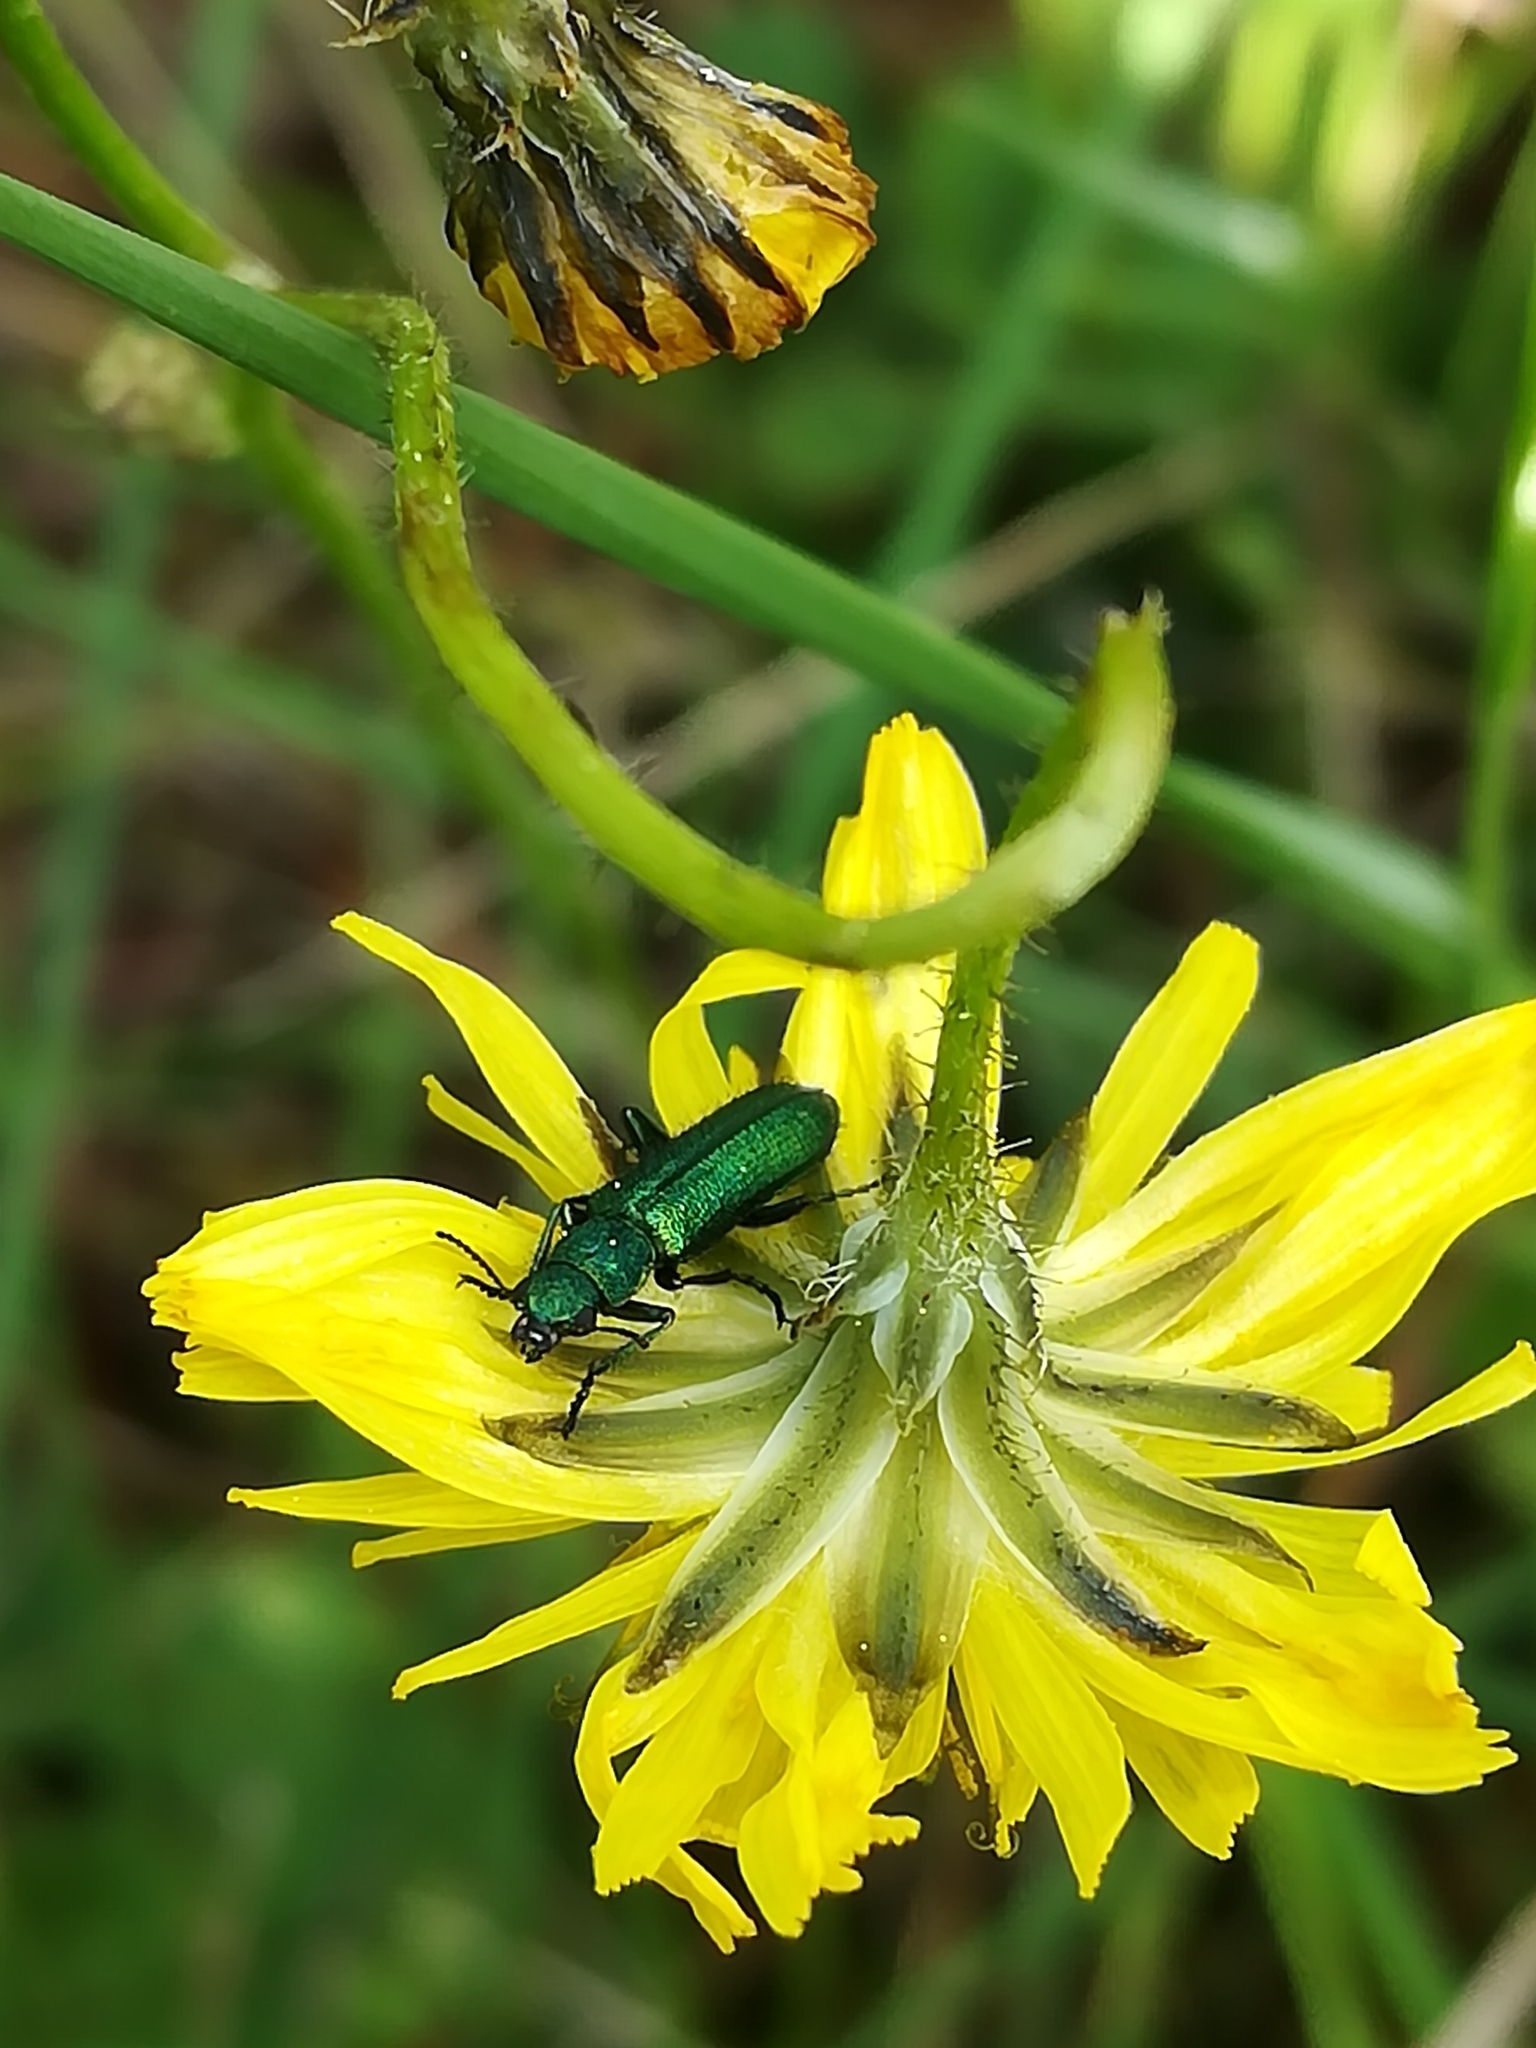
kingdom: Animalia
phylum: Arthropoda
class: Insecta
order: Coleoptera
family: Dasytidae
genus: Psilothrix
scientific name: Psilothrix viridicoerulea
